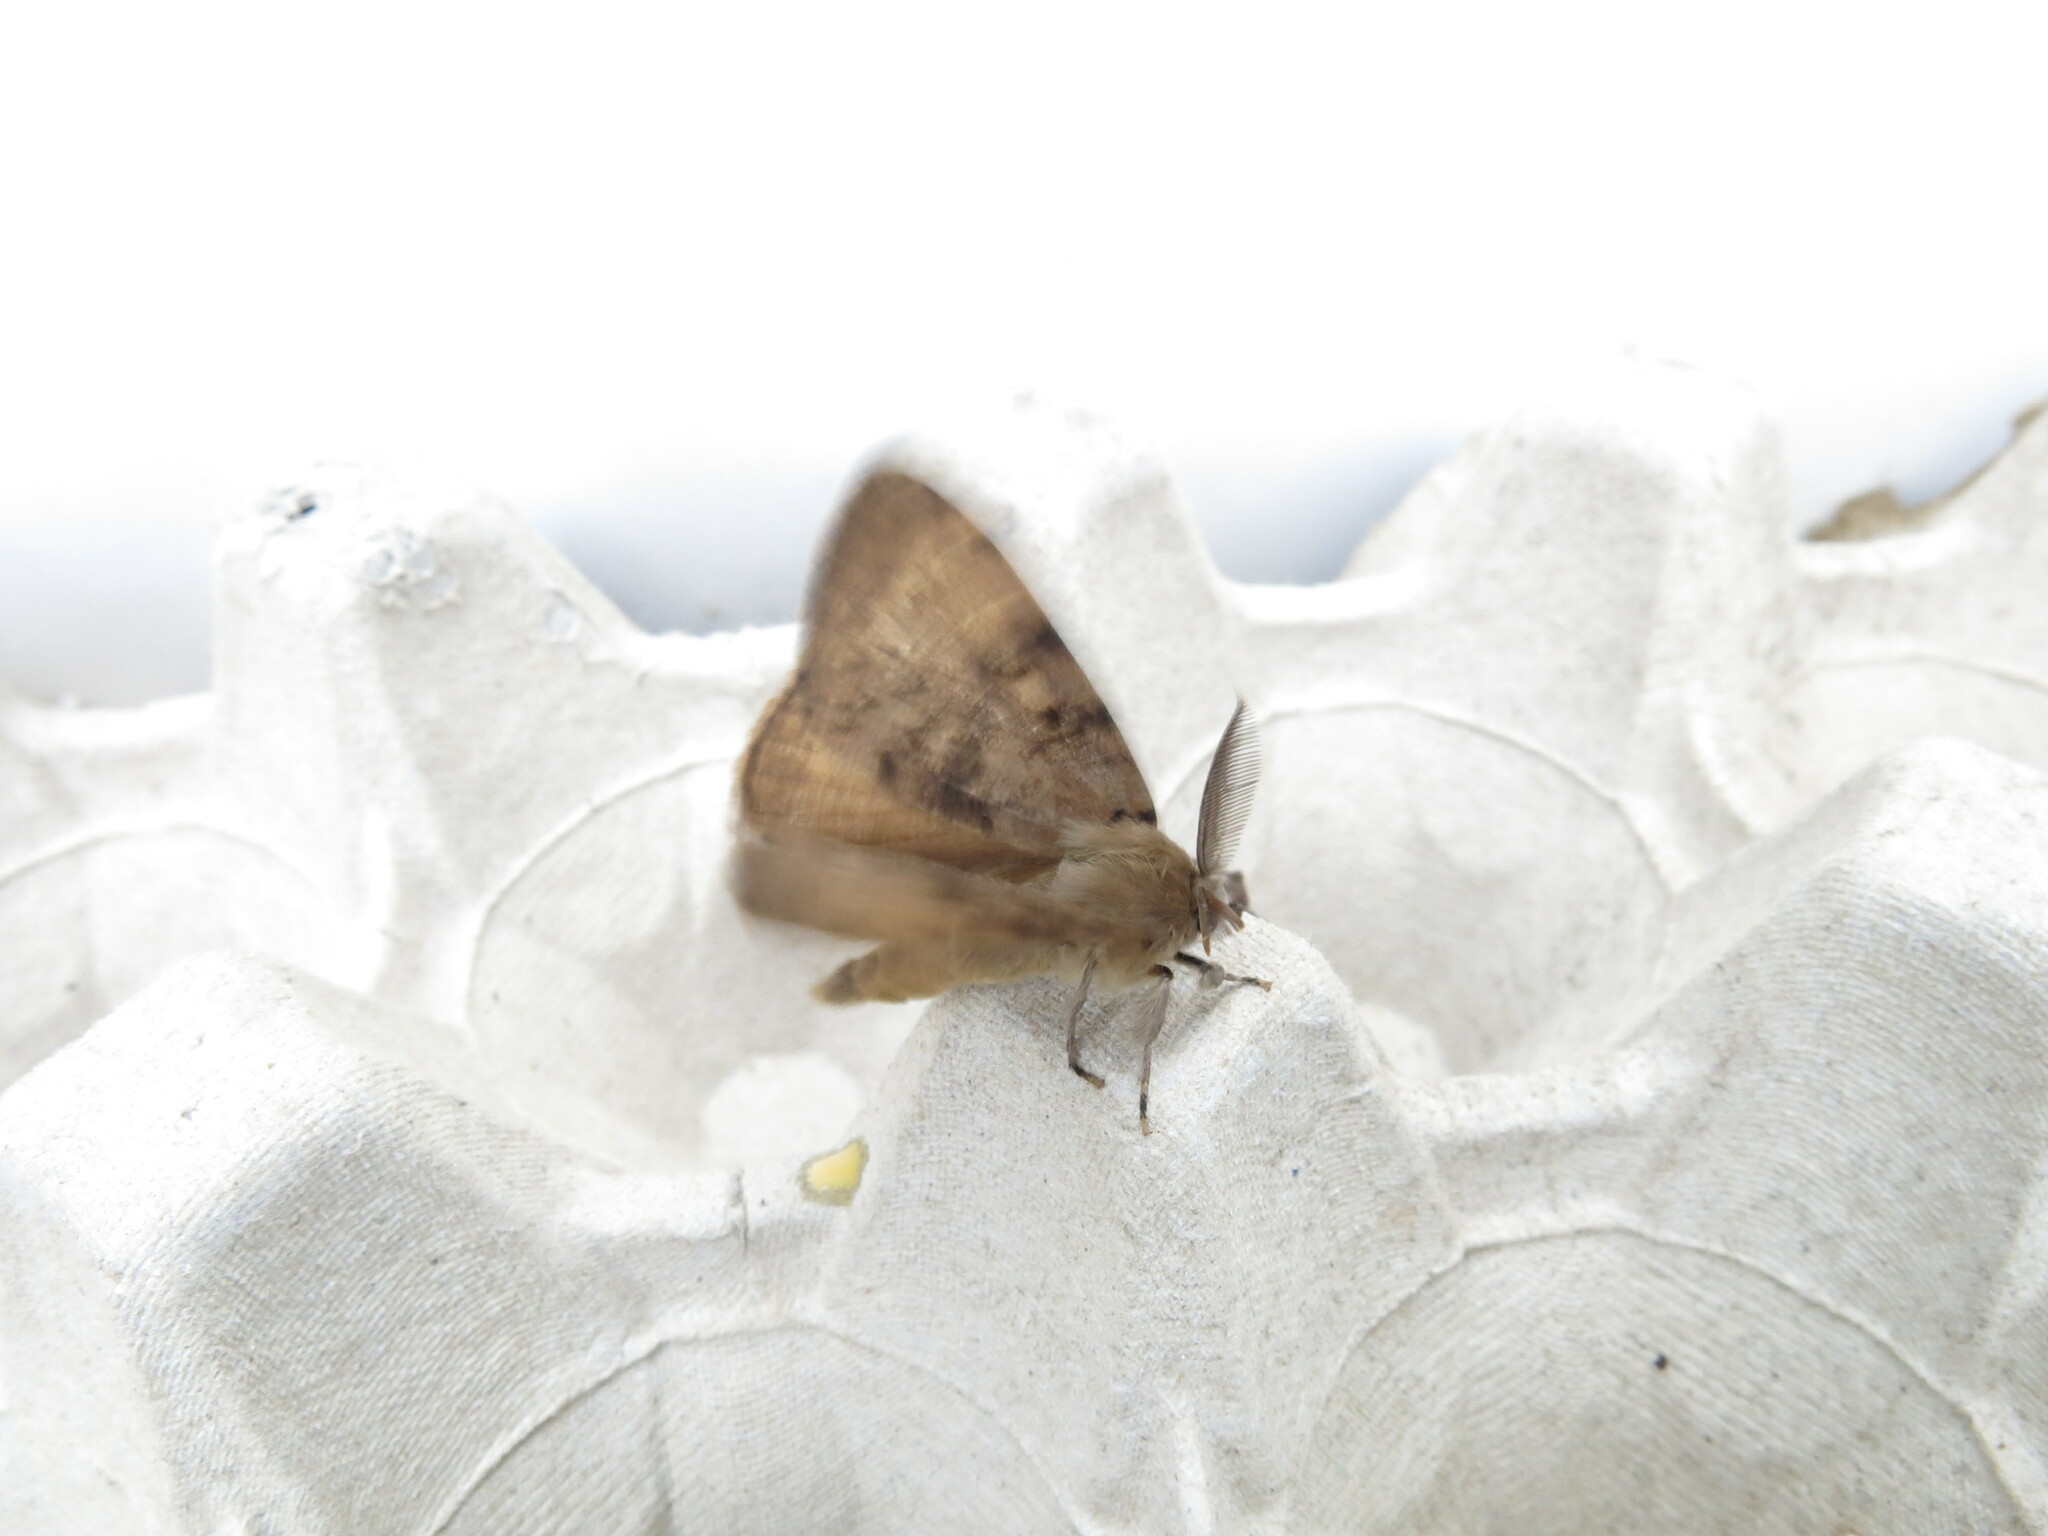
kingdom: Animalia
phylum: Arthropoda
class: Insecta
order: Lepidoptera
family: Erebidae
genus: Lymantria
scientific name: Lymantria dispar
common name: Gypsy moth
